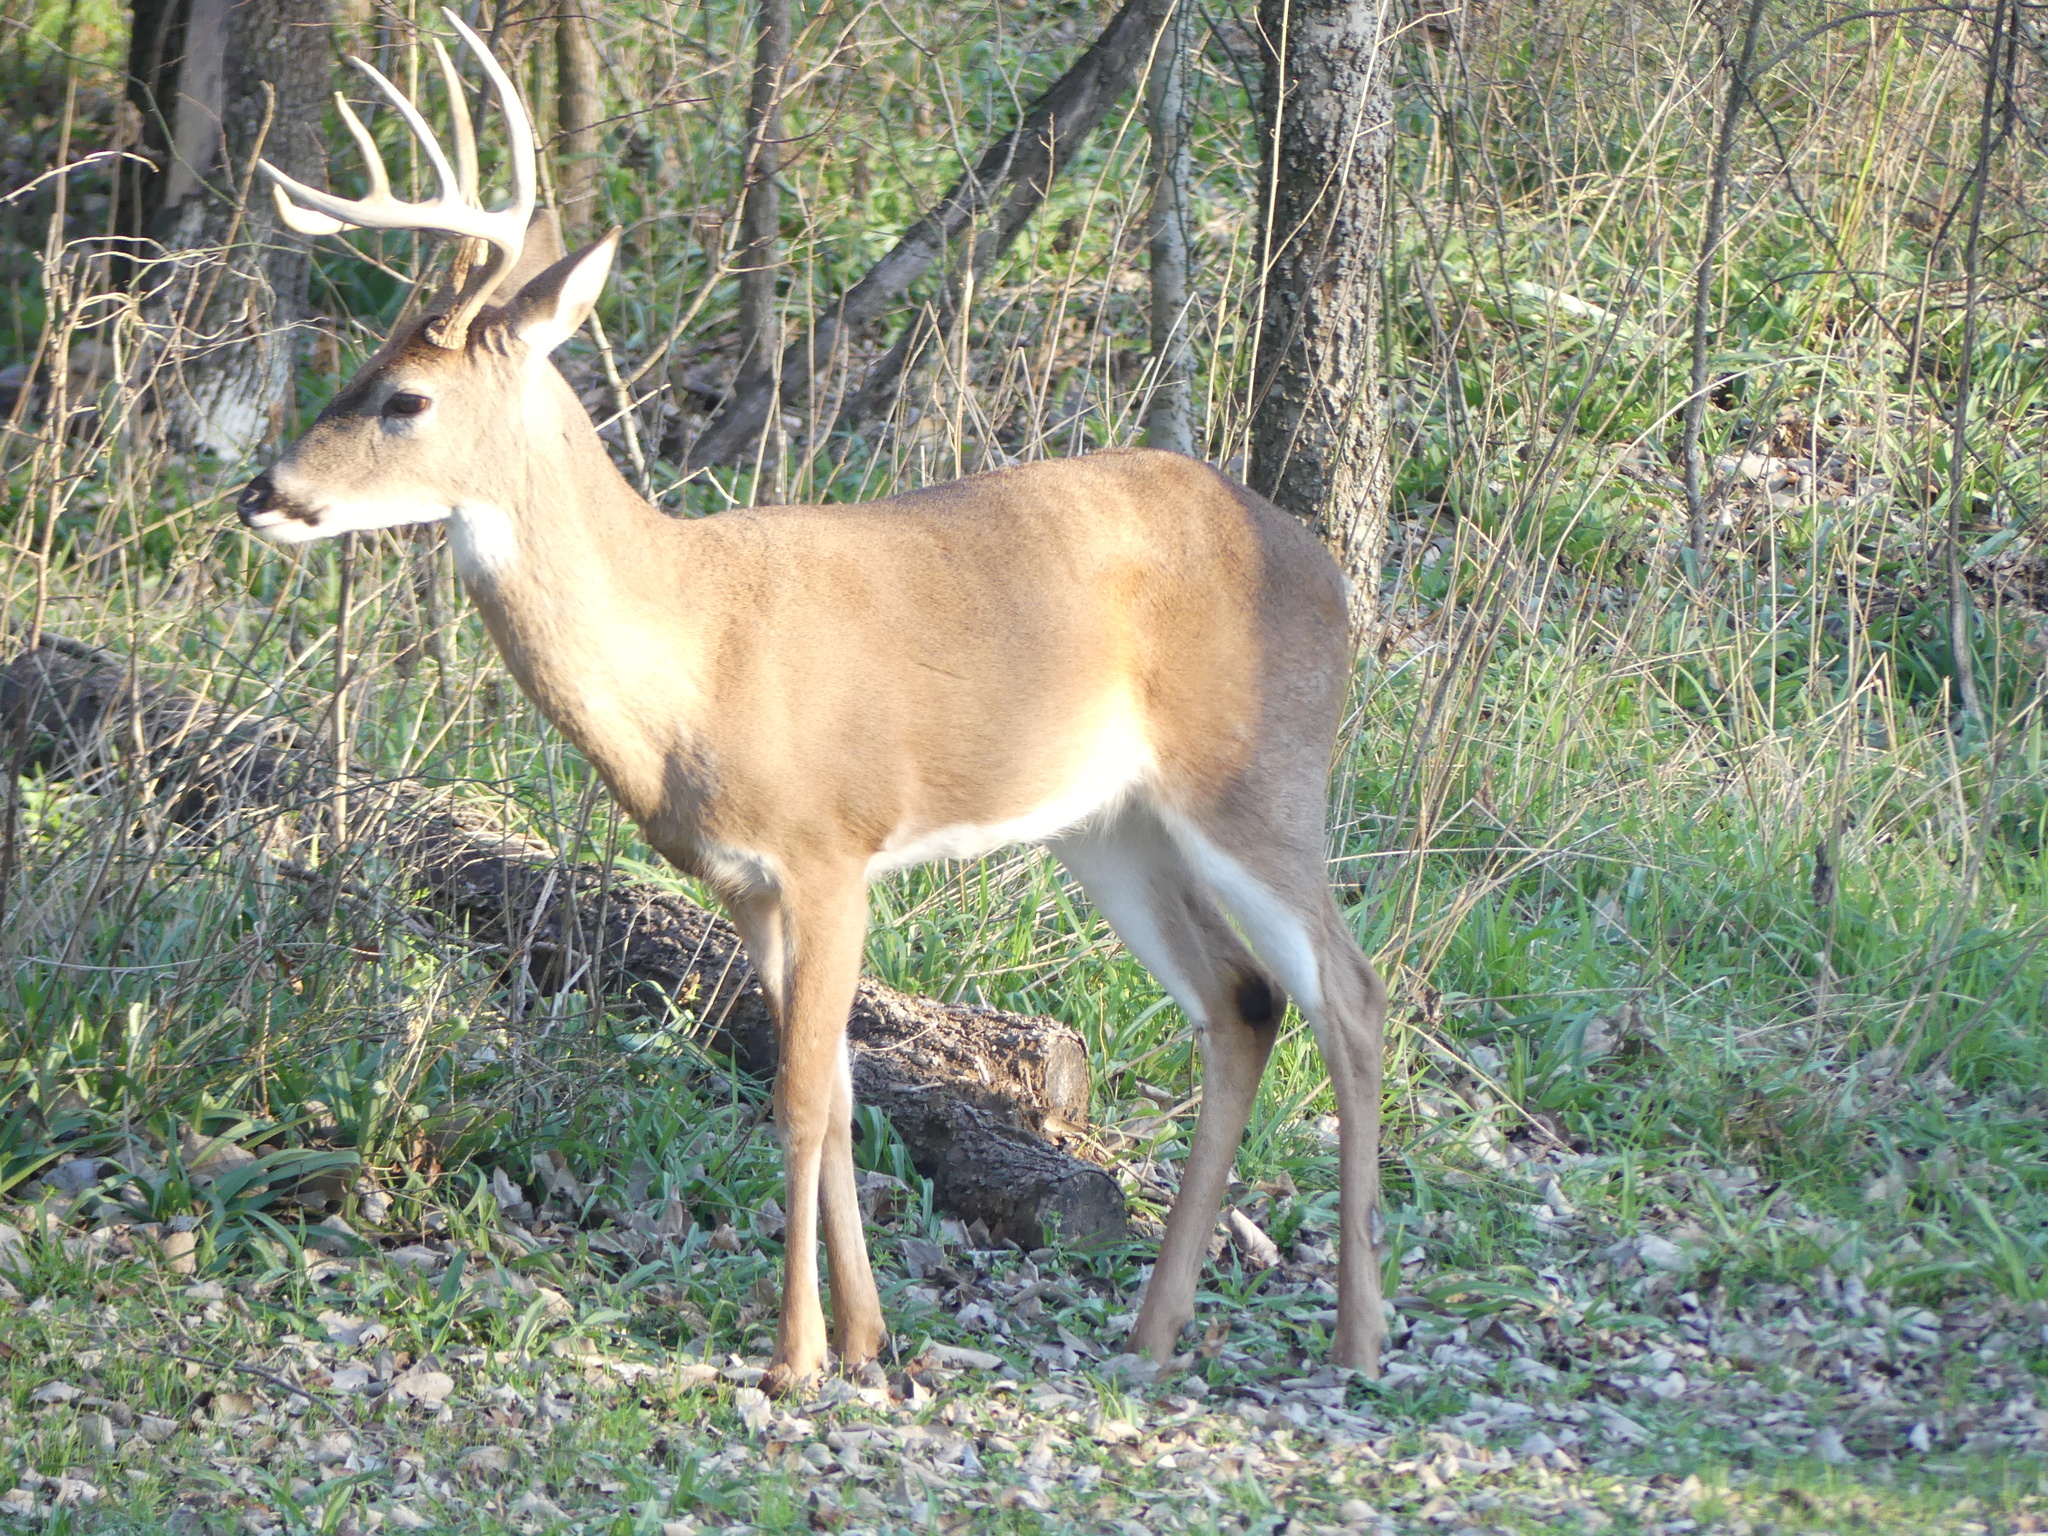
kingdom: Animalia
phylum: Chordata
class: Mammalia
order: Artiodactyla
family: Cervidae
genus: Odocoileus
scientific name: Odocoileus virginianus
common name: White-tailed deer
